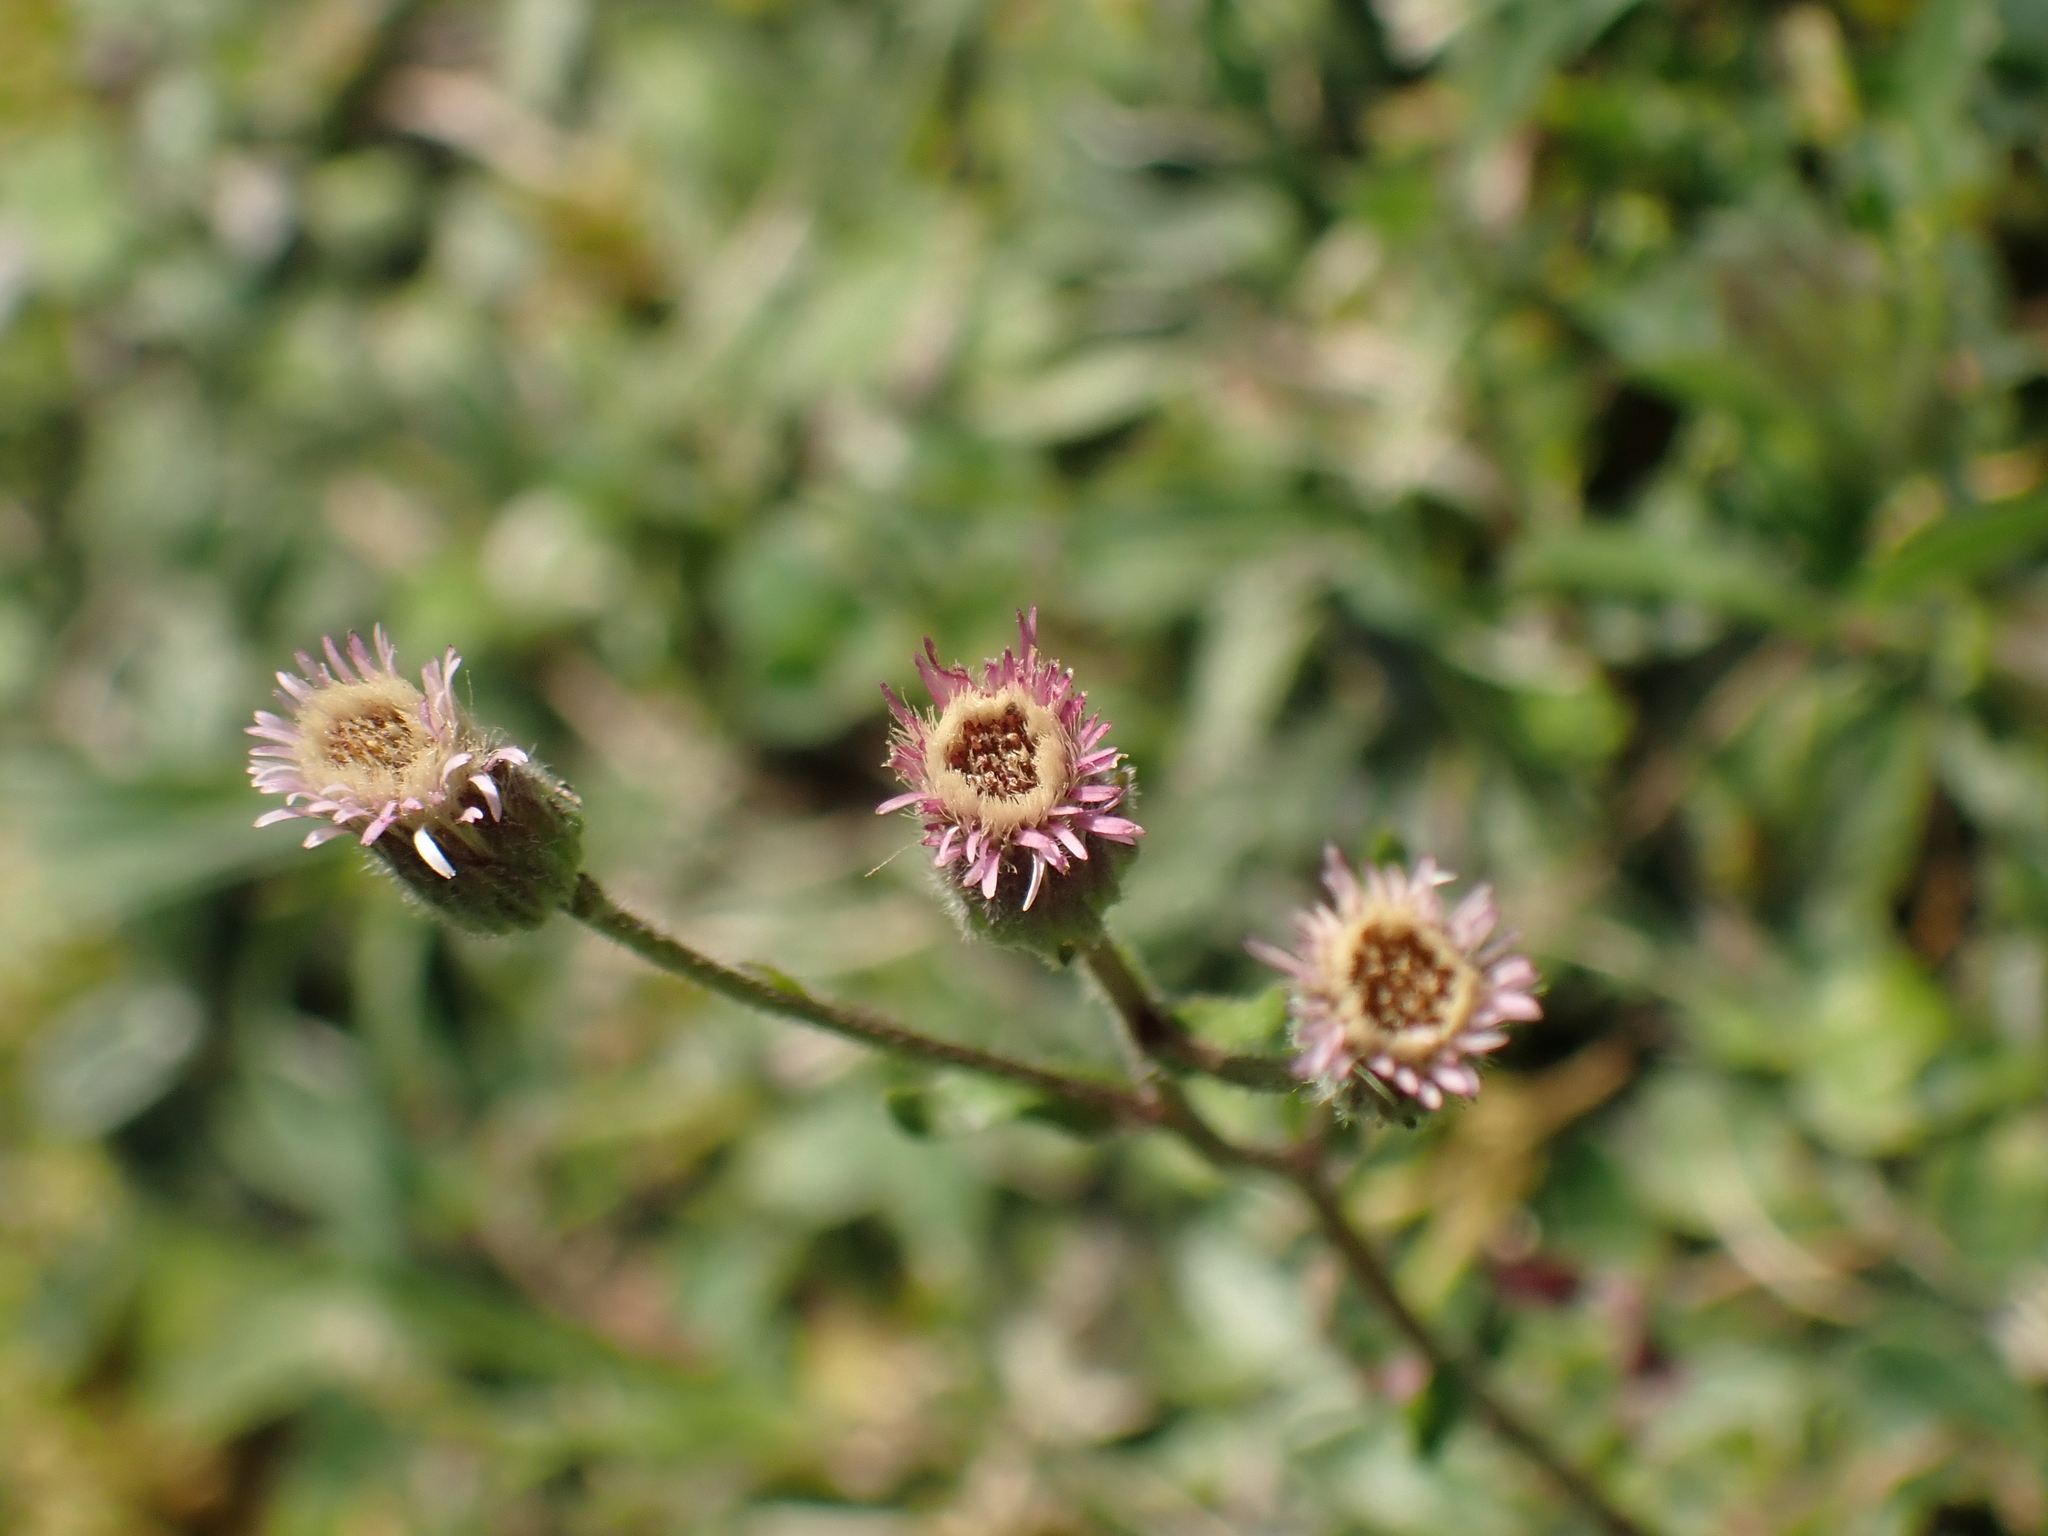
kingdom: Plantae
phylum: Tracheophyta
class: Magnoliopsida
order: Asterales
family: Asteraceae
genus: Erigeron
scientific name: Erigeron acris
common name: Blue fleabane
